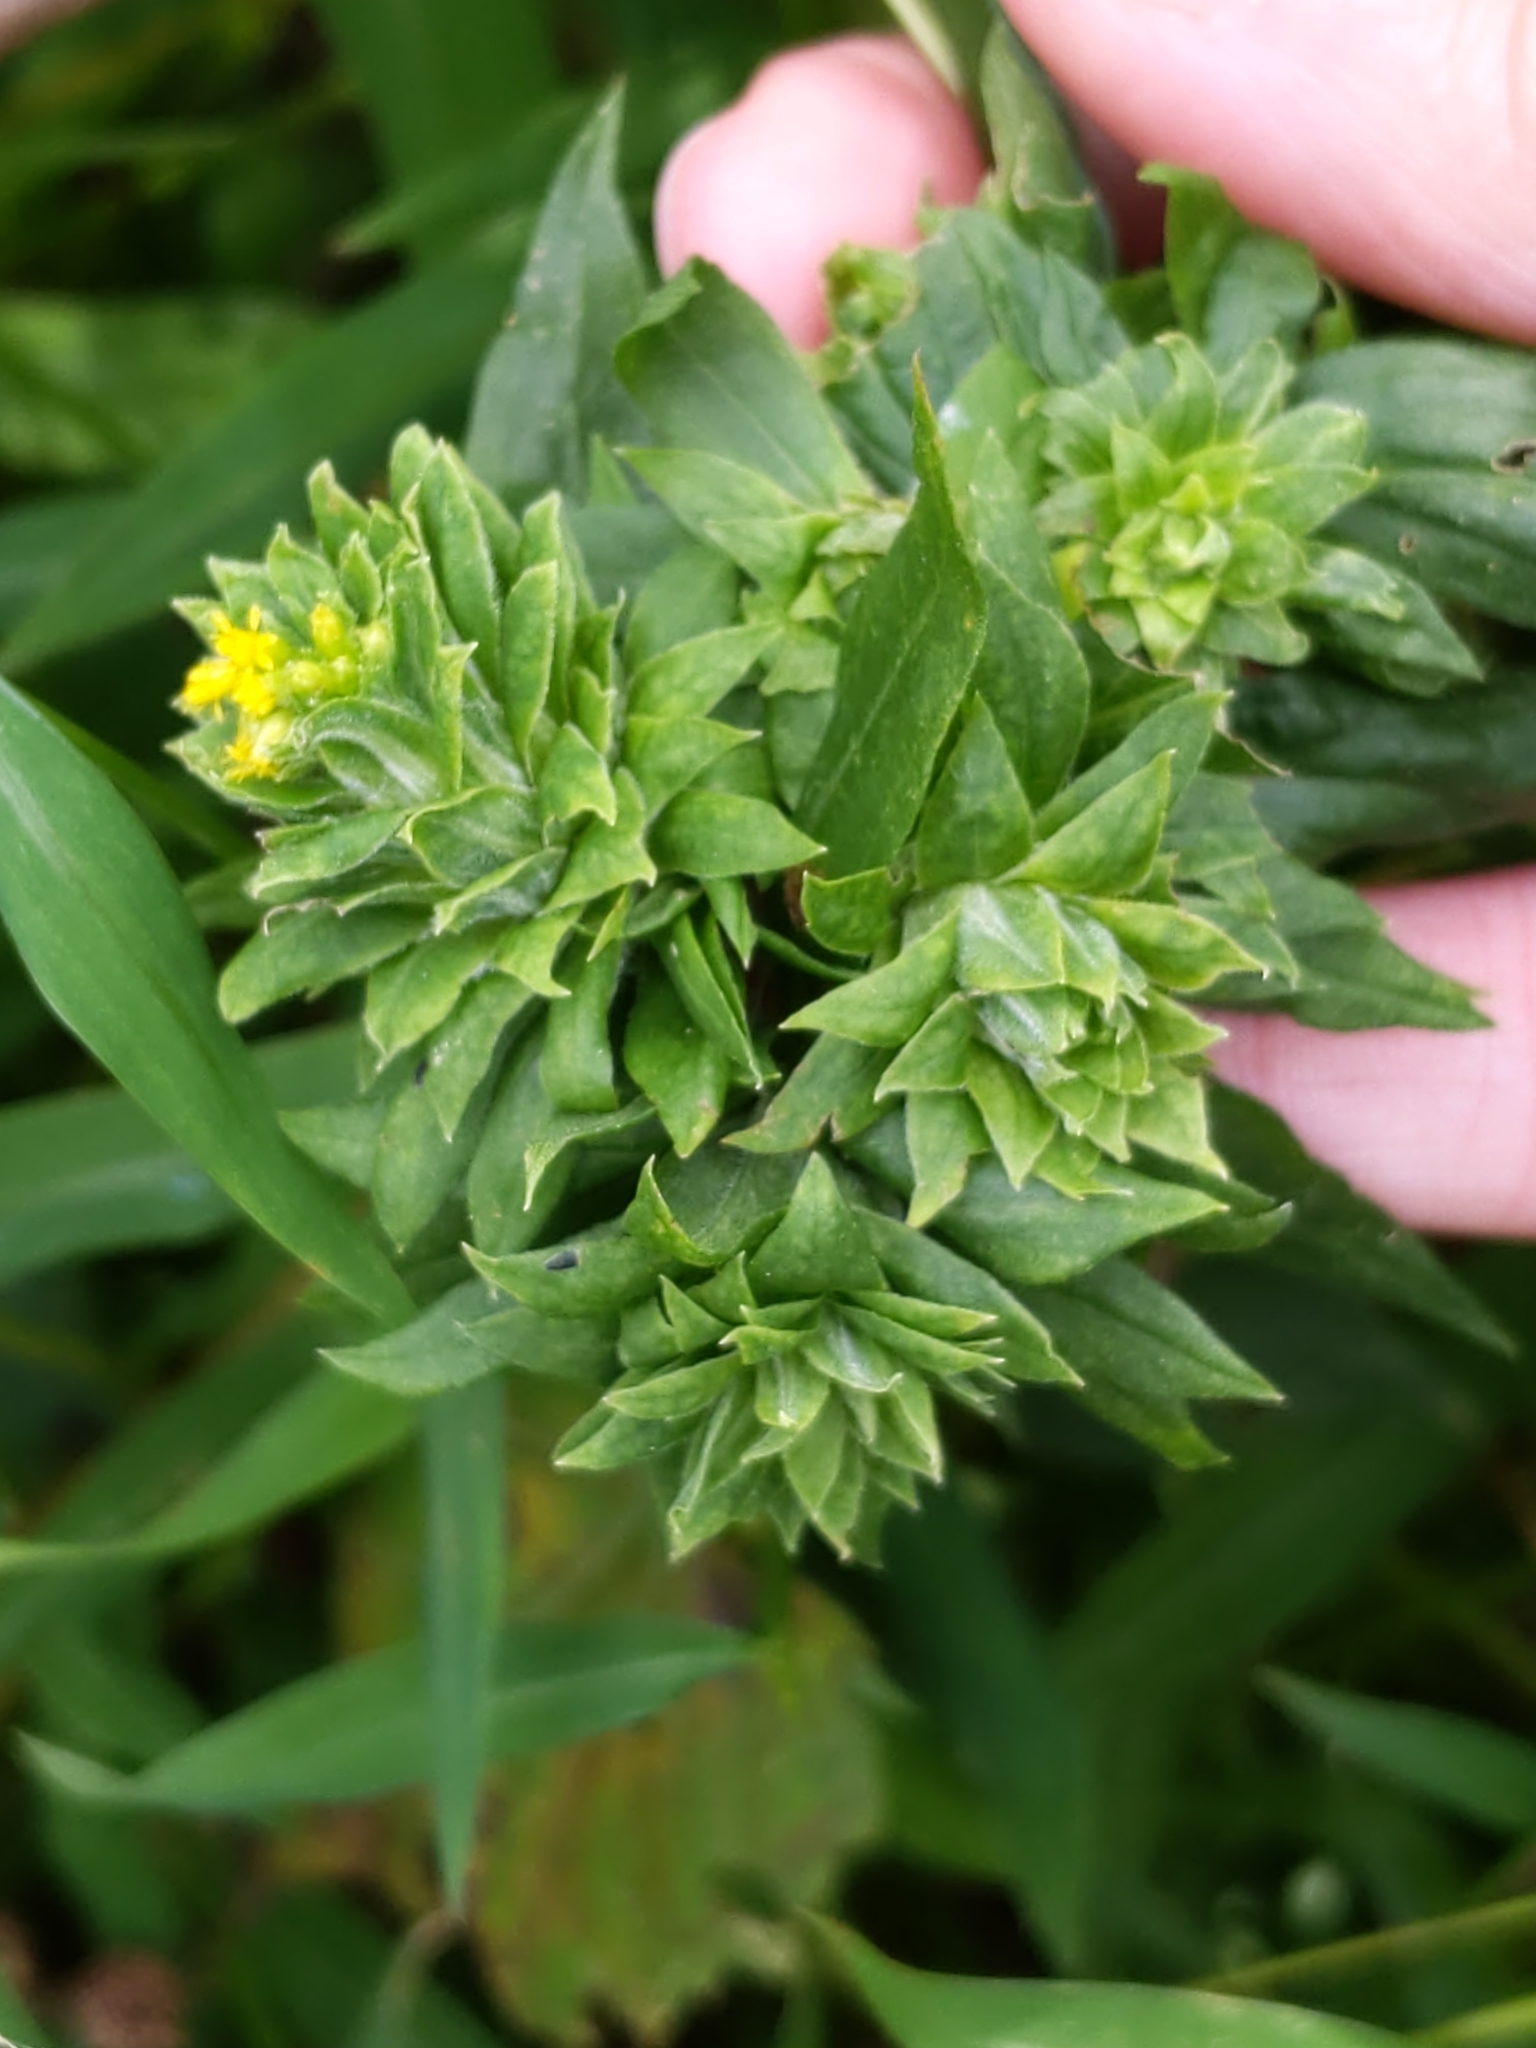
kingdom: Animalia
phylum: Arthropoda
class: Insecta
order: Diptera
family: Tephritidae
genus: Procecidochares
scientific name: Procecidochares atra
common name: Goldenrod brussels sprout gall fly
